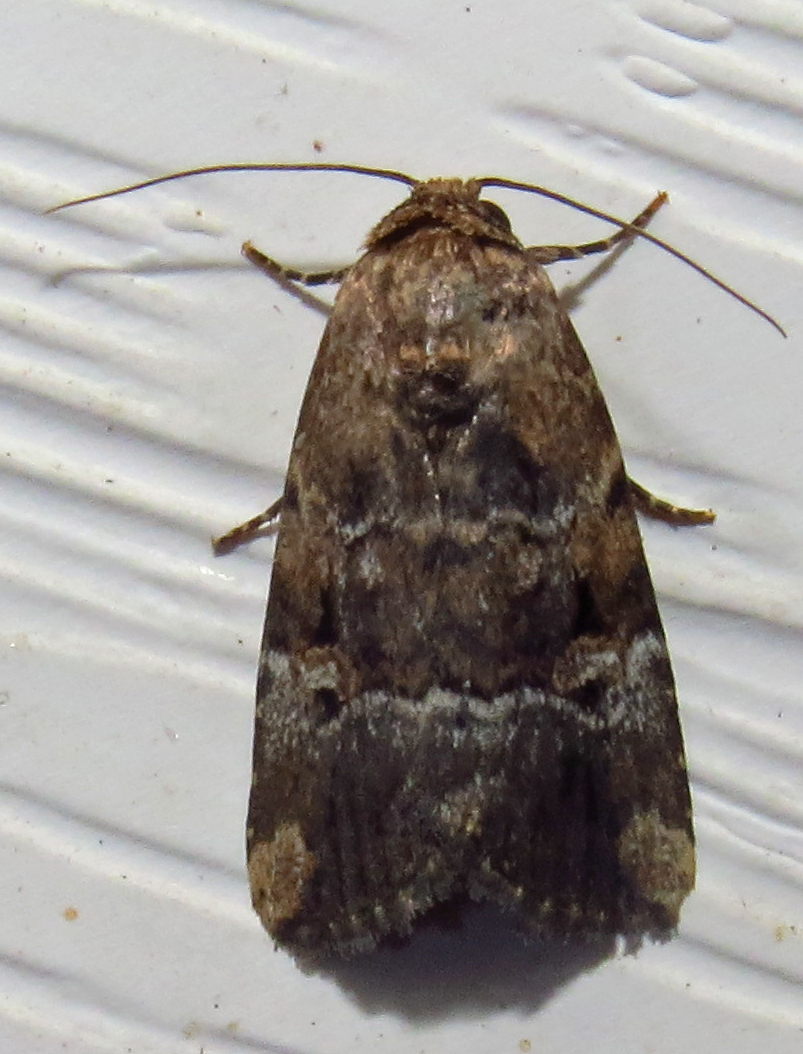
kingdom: Animalia
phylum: Arthropoda
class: Insecta
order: Lepidoptera
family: Noctuidae
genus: Elaphria
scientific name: Elaphria chalcedonia
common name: Chalcedony midget
